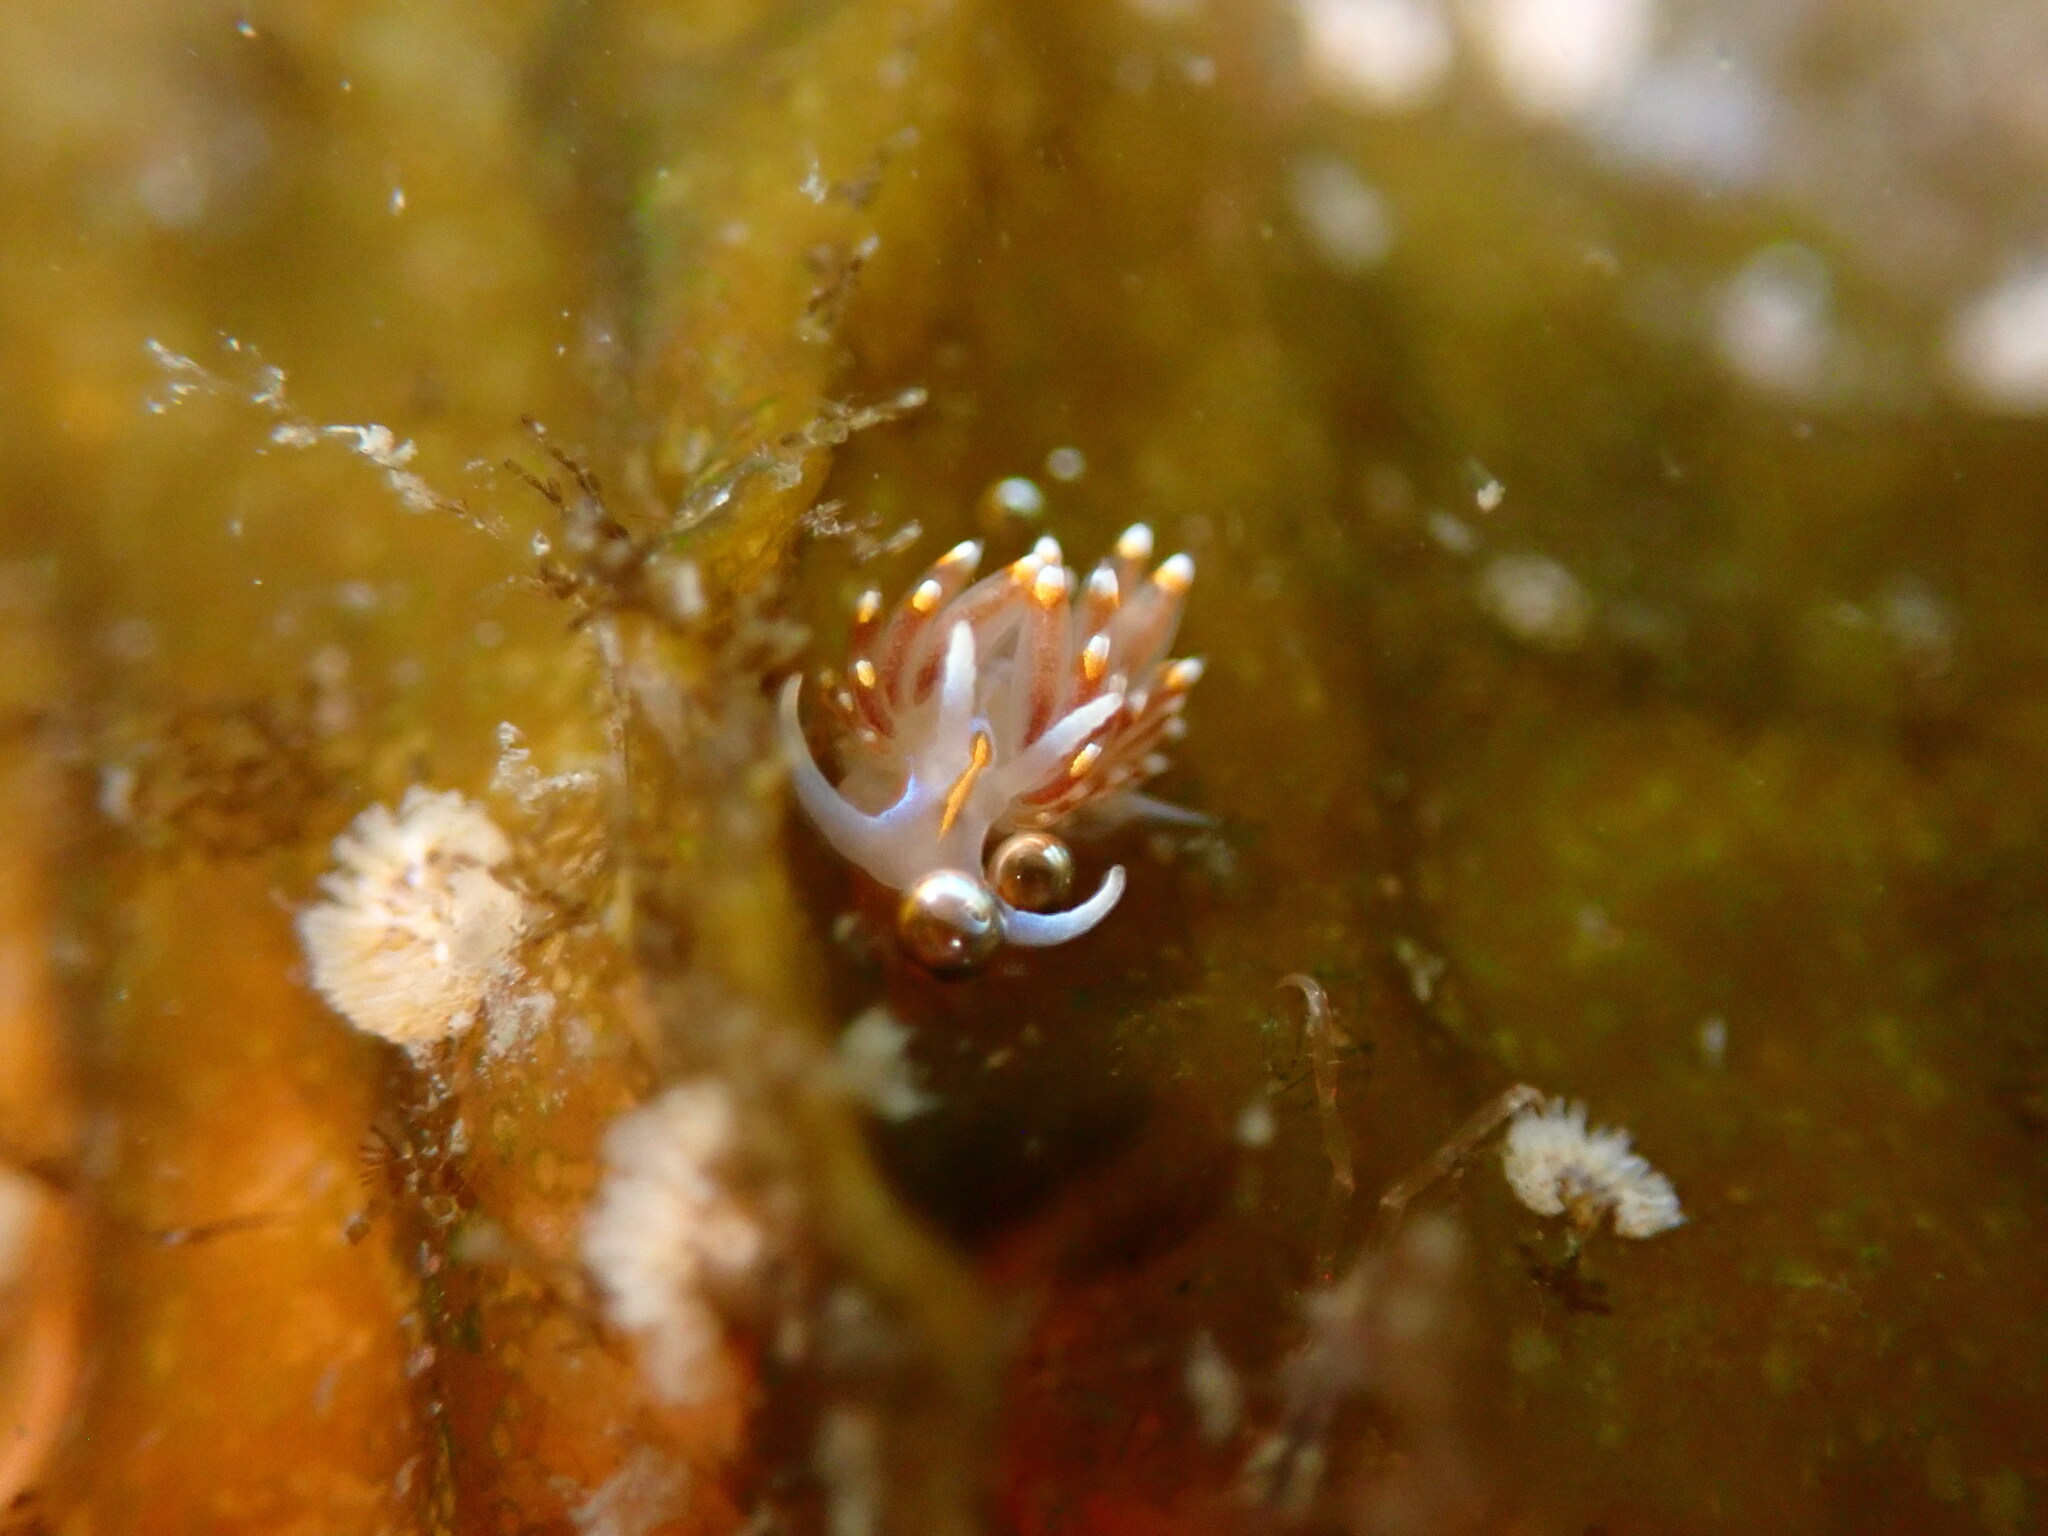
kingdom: Animalia
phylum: Mollusca
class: Gastropoda
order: Nudibranchia
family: Myrrhinidae
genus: Hermissenda
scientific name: Hermissenda opalescens
